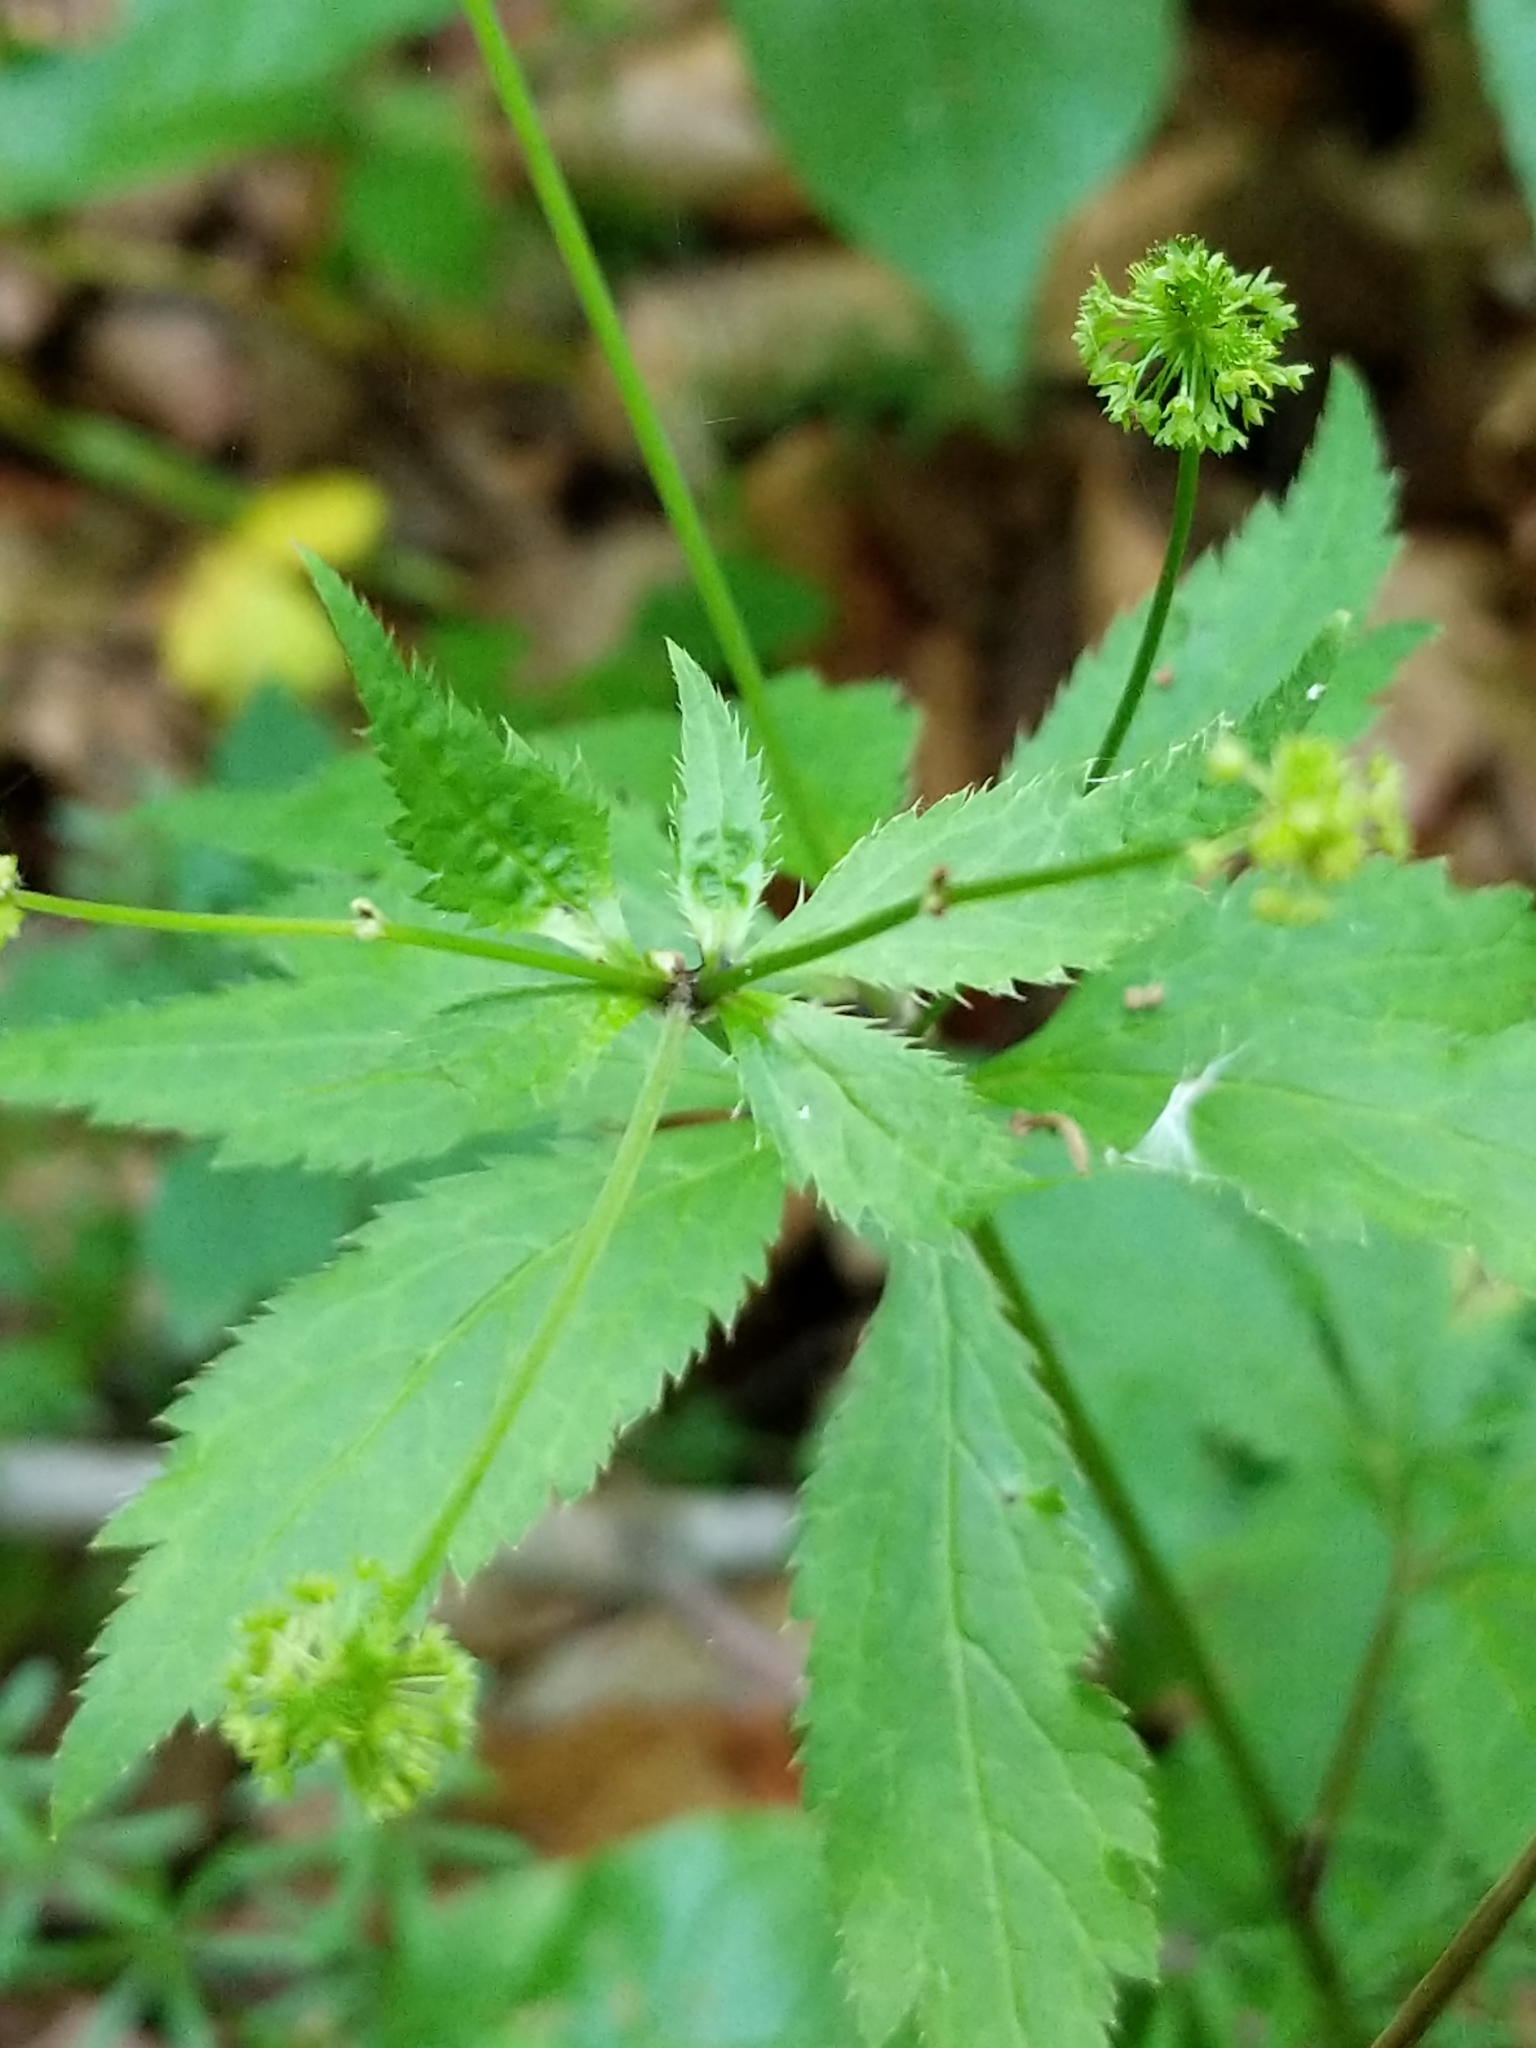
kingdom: Plantae
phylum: Tracheophyta
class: Magnoliopsida
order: Apiales
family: Apiaceae
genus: Sanicula
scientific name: Sanicula odorata
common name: Cluster sanicle
